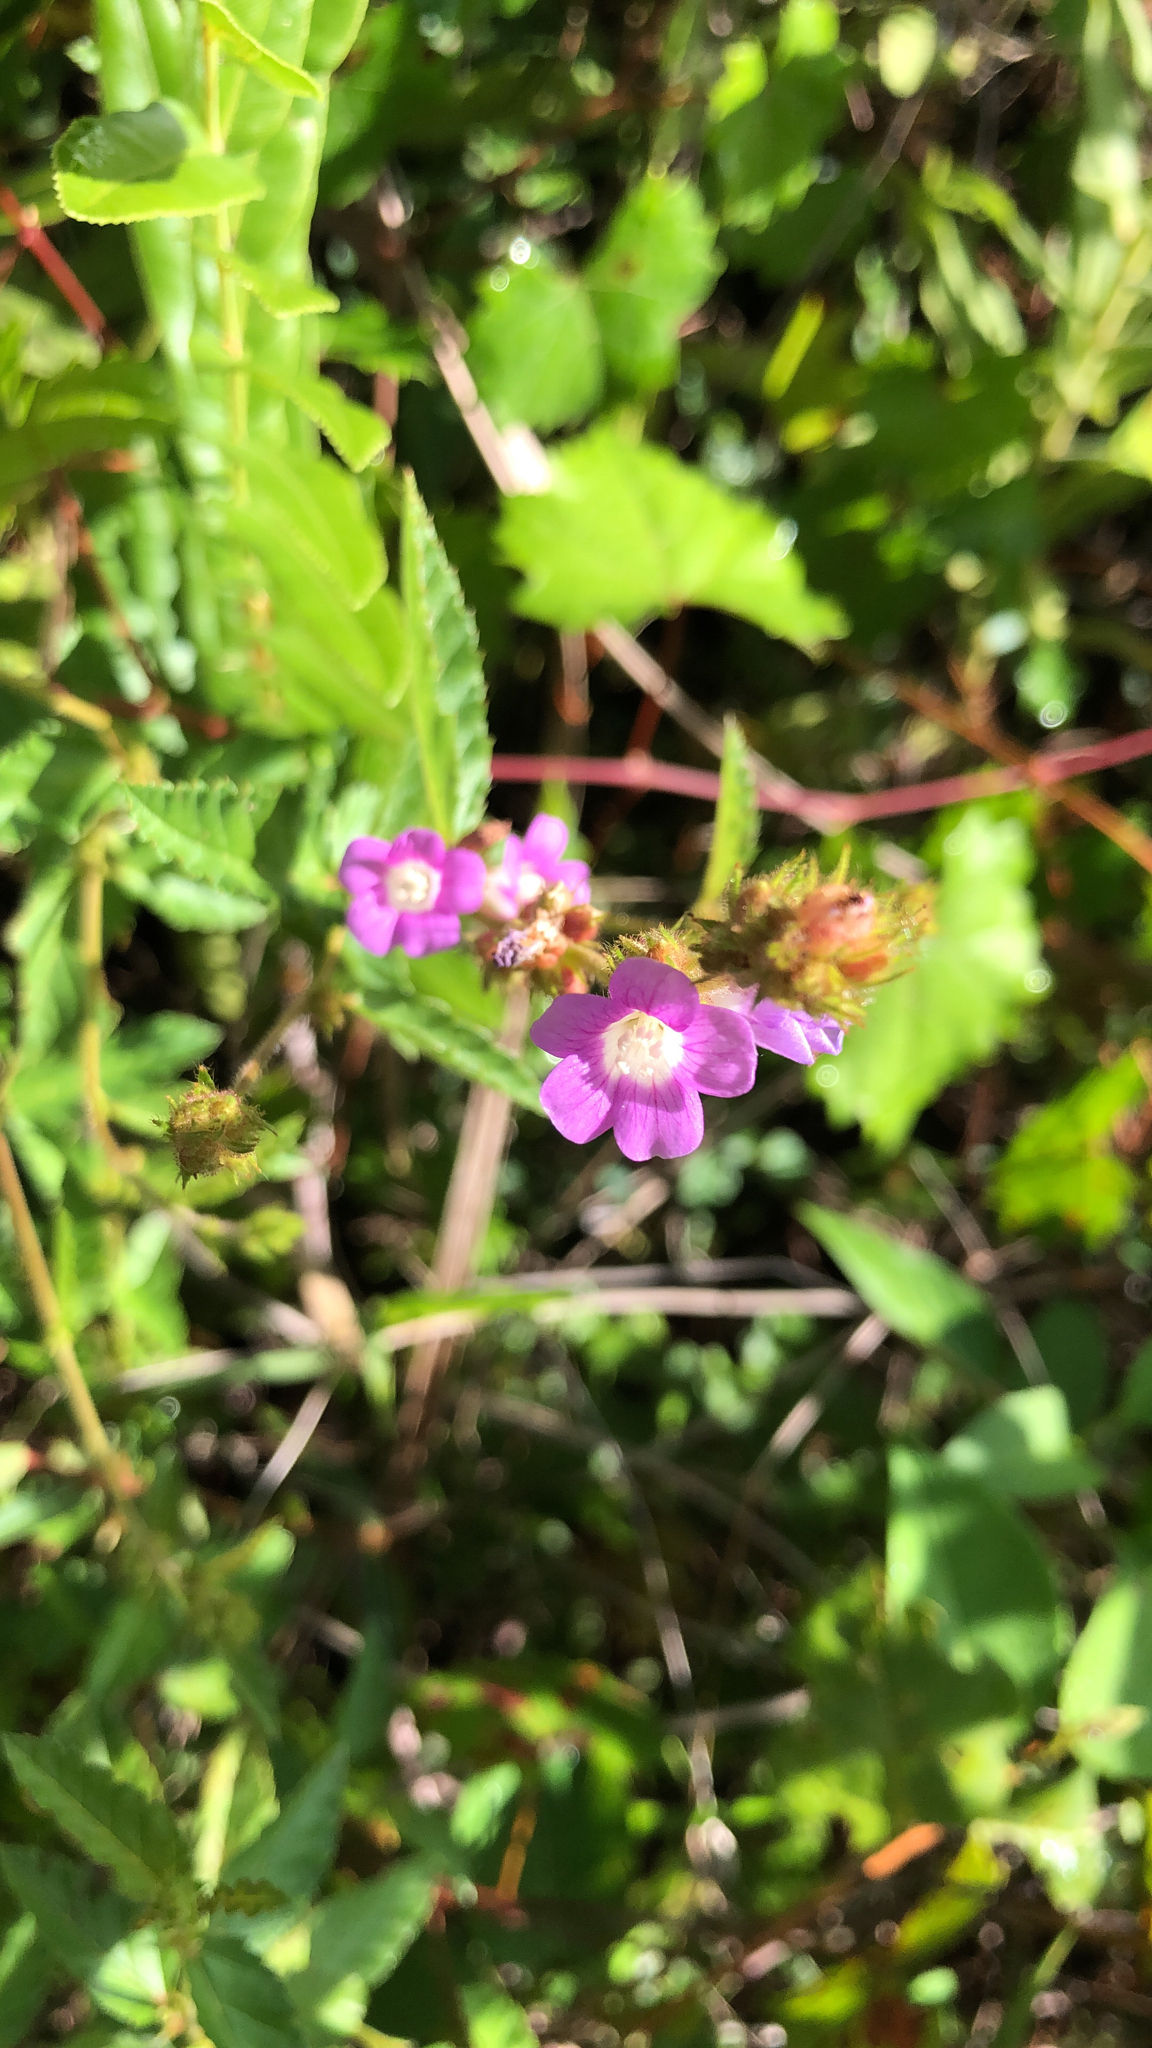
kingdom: Plantae
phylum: Tracheophyta
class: Magnoliopsida
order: Malvales
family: Malvaceae
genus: Melochia
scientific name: Melochia spicata
